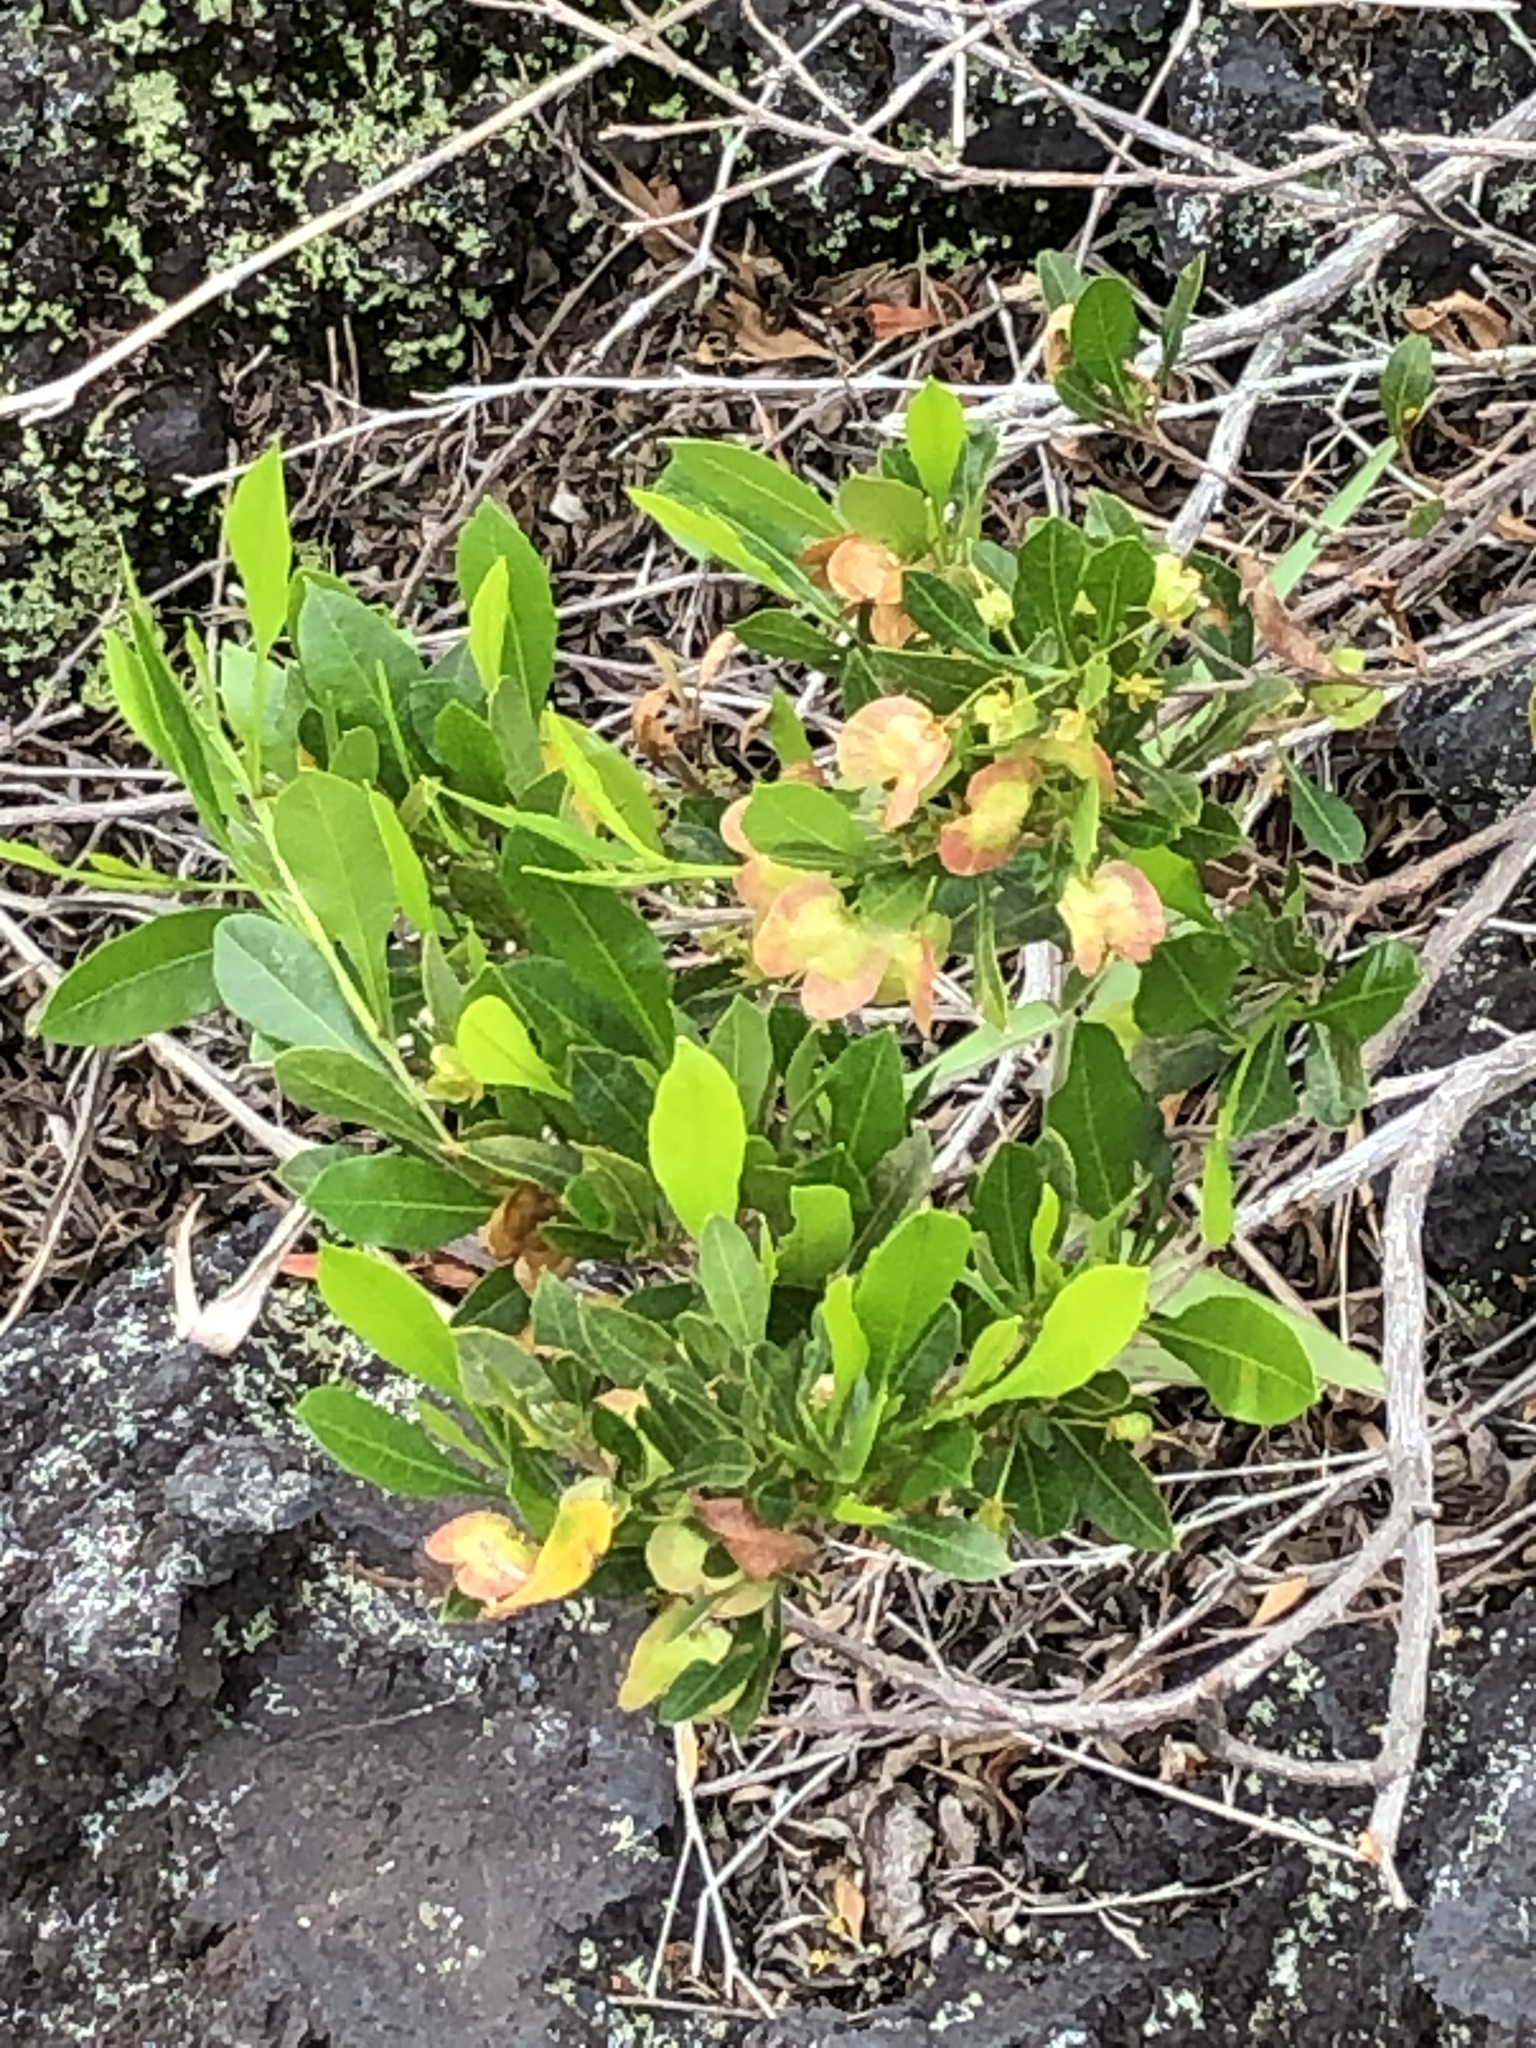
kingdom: Plantae
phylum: Tracheophyta
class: Magnoliopsida
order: Sapindales
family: Sapindaceae
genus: Dodonaea
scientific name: Dodonaea viscosa
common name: Hopbush
